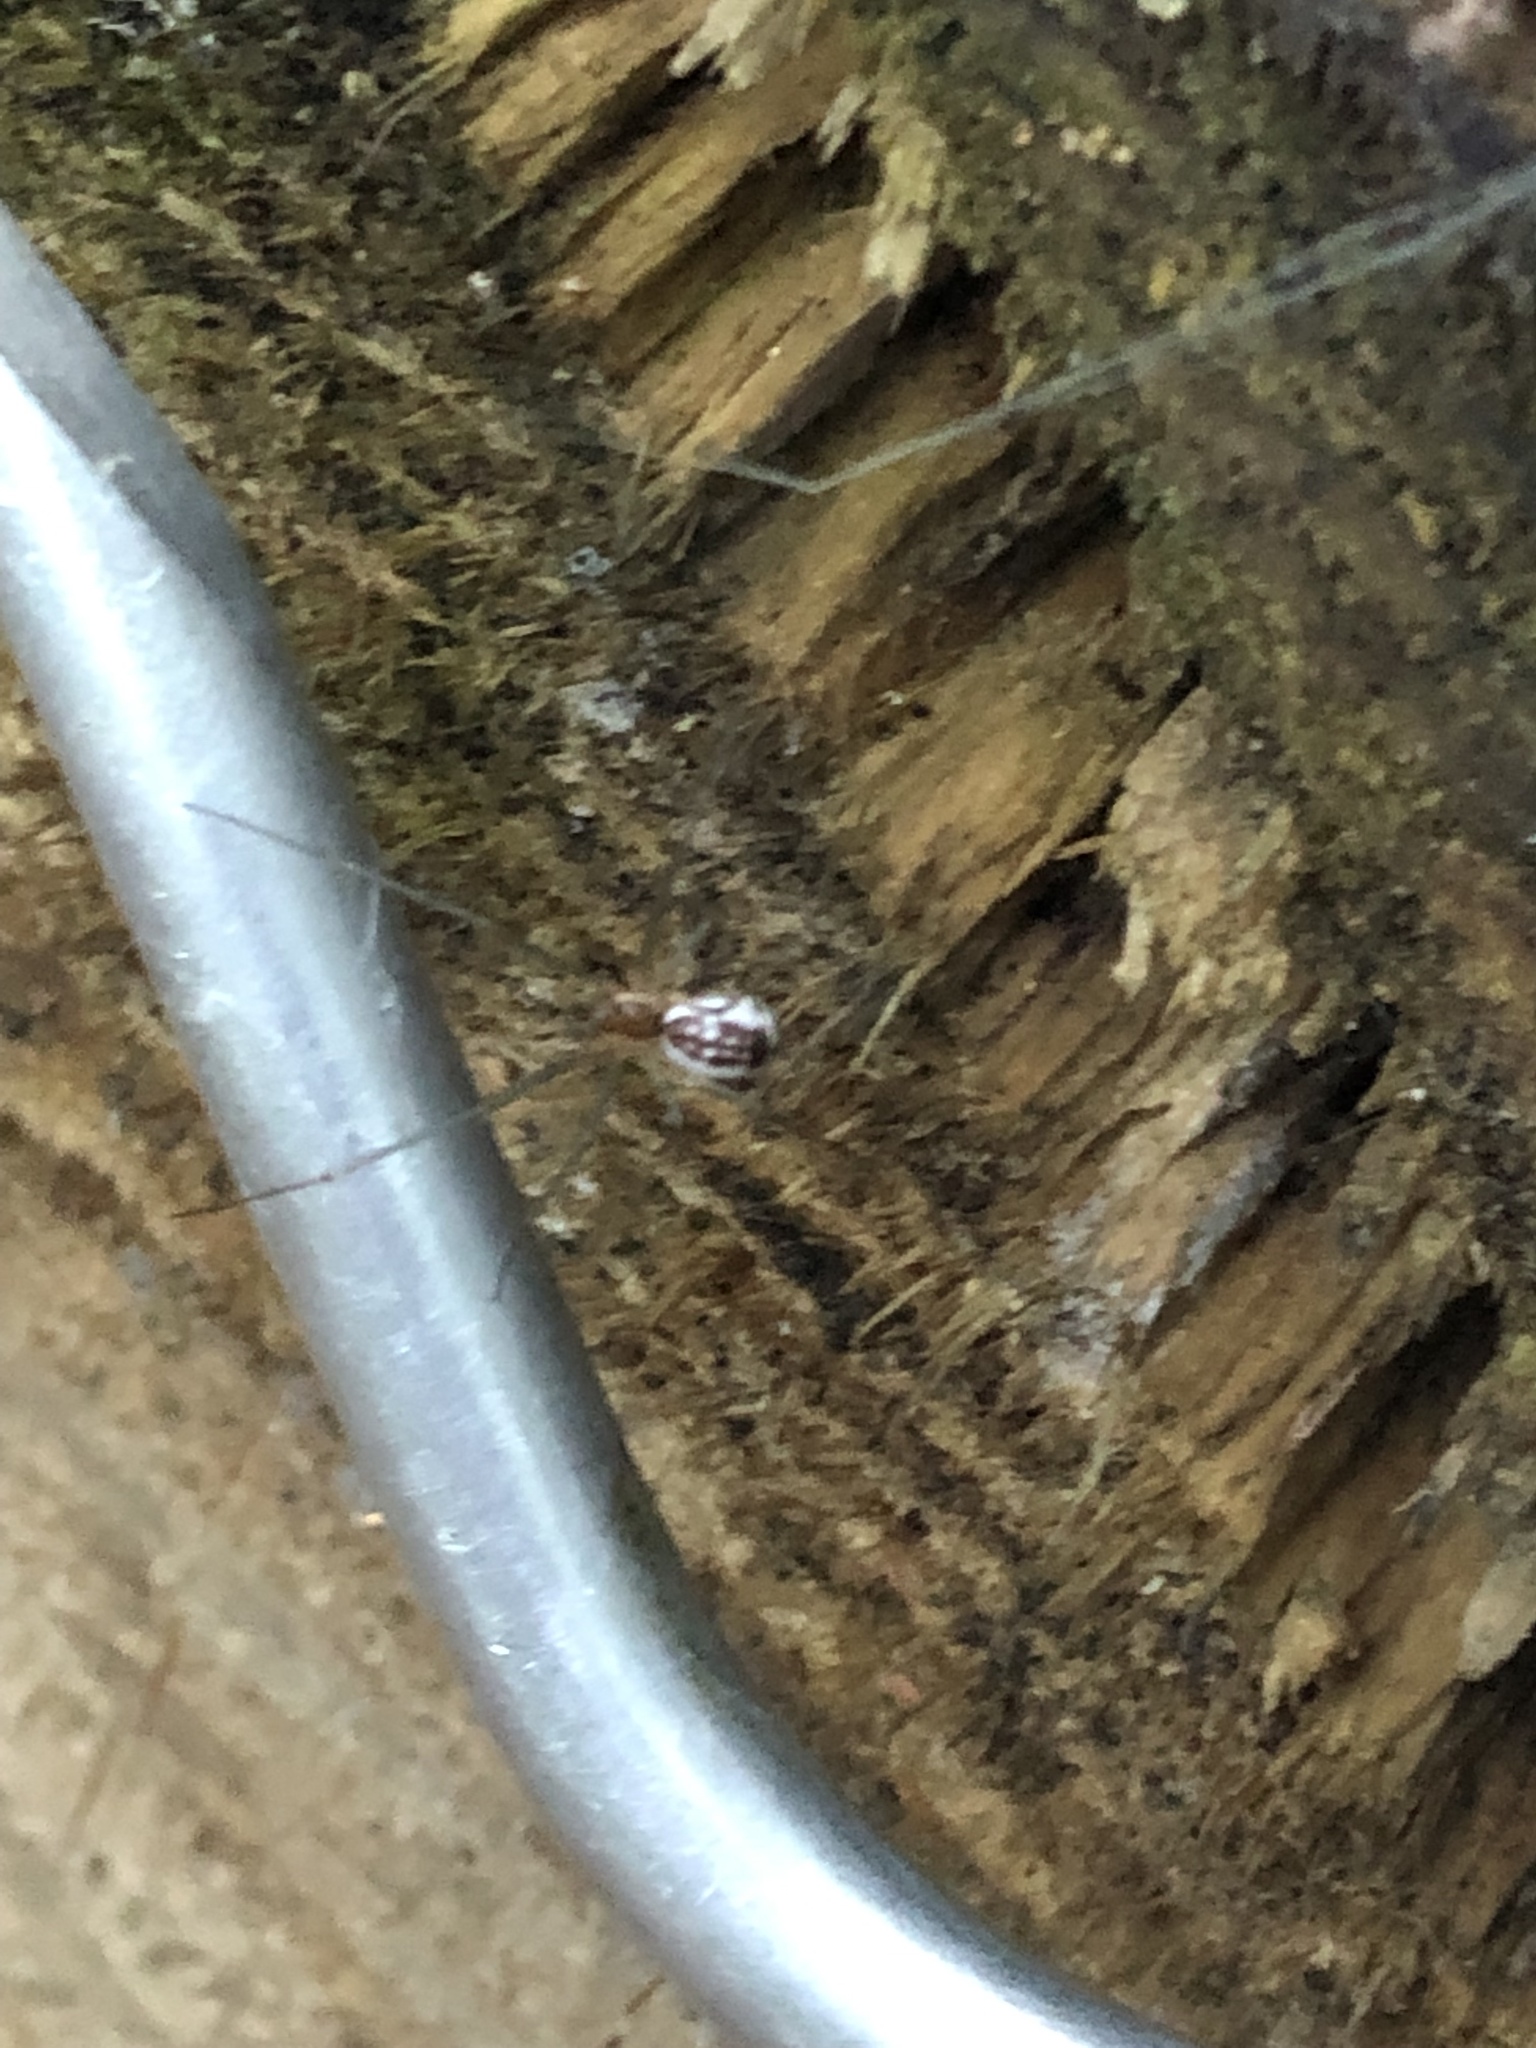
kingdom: Animalia
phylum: Arthropoda
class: Arachnida
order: Araneae
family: Linyphiidae
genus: Neriene
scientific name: Neriene radiata
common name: Filmy dome spider
